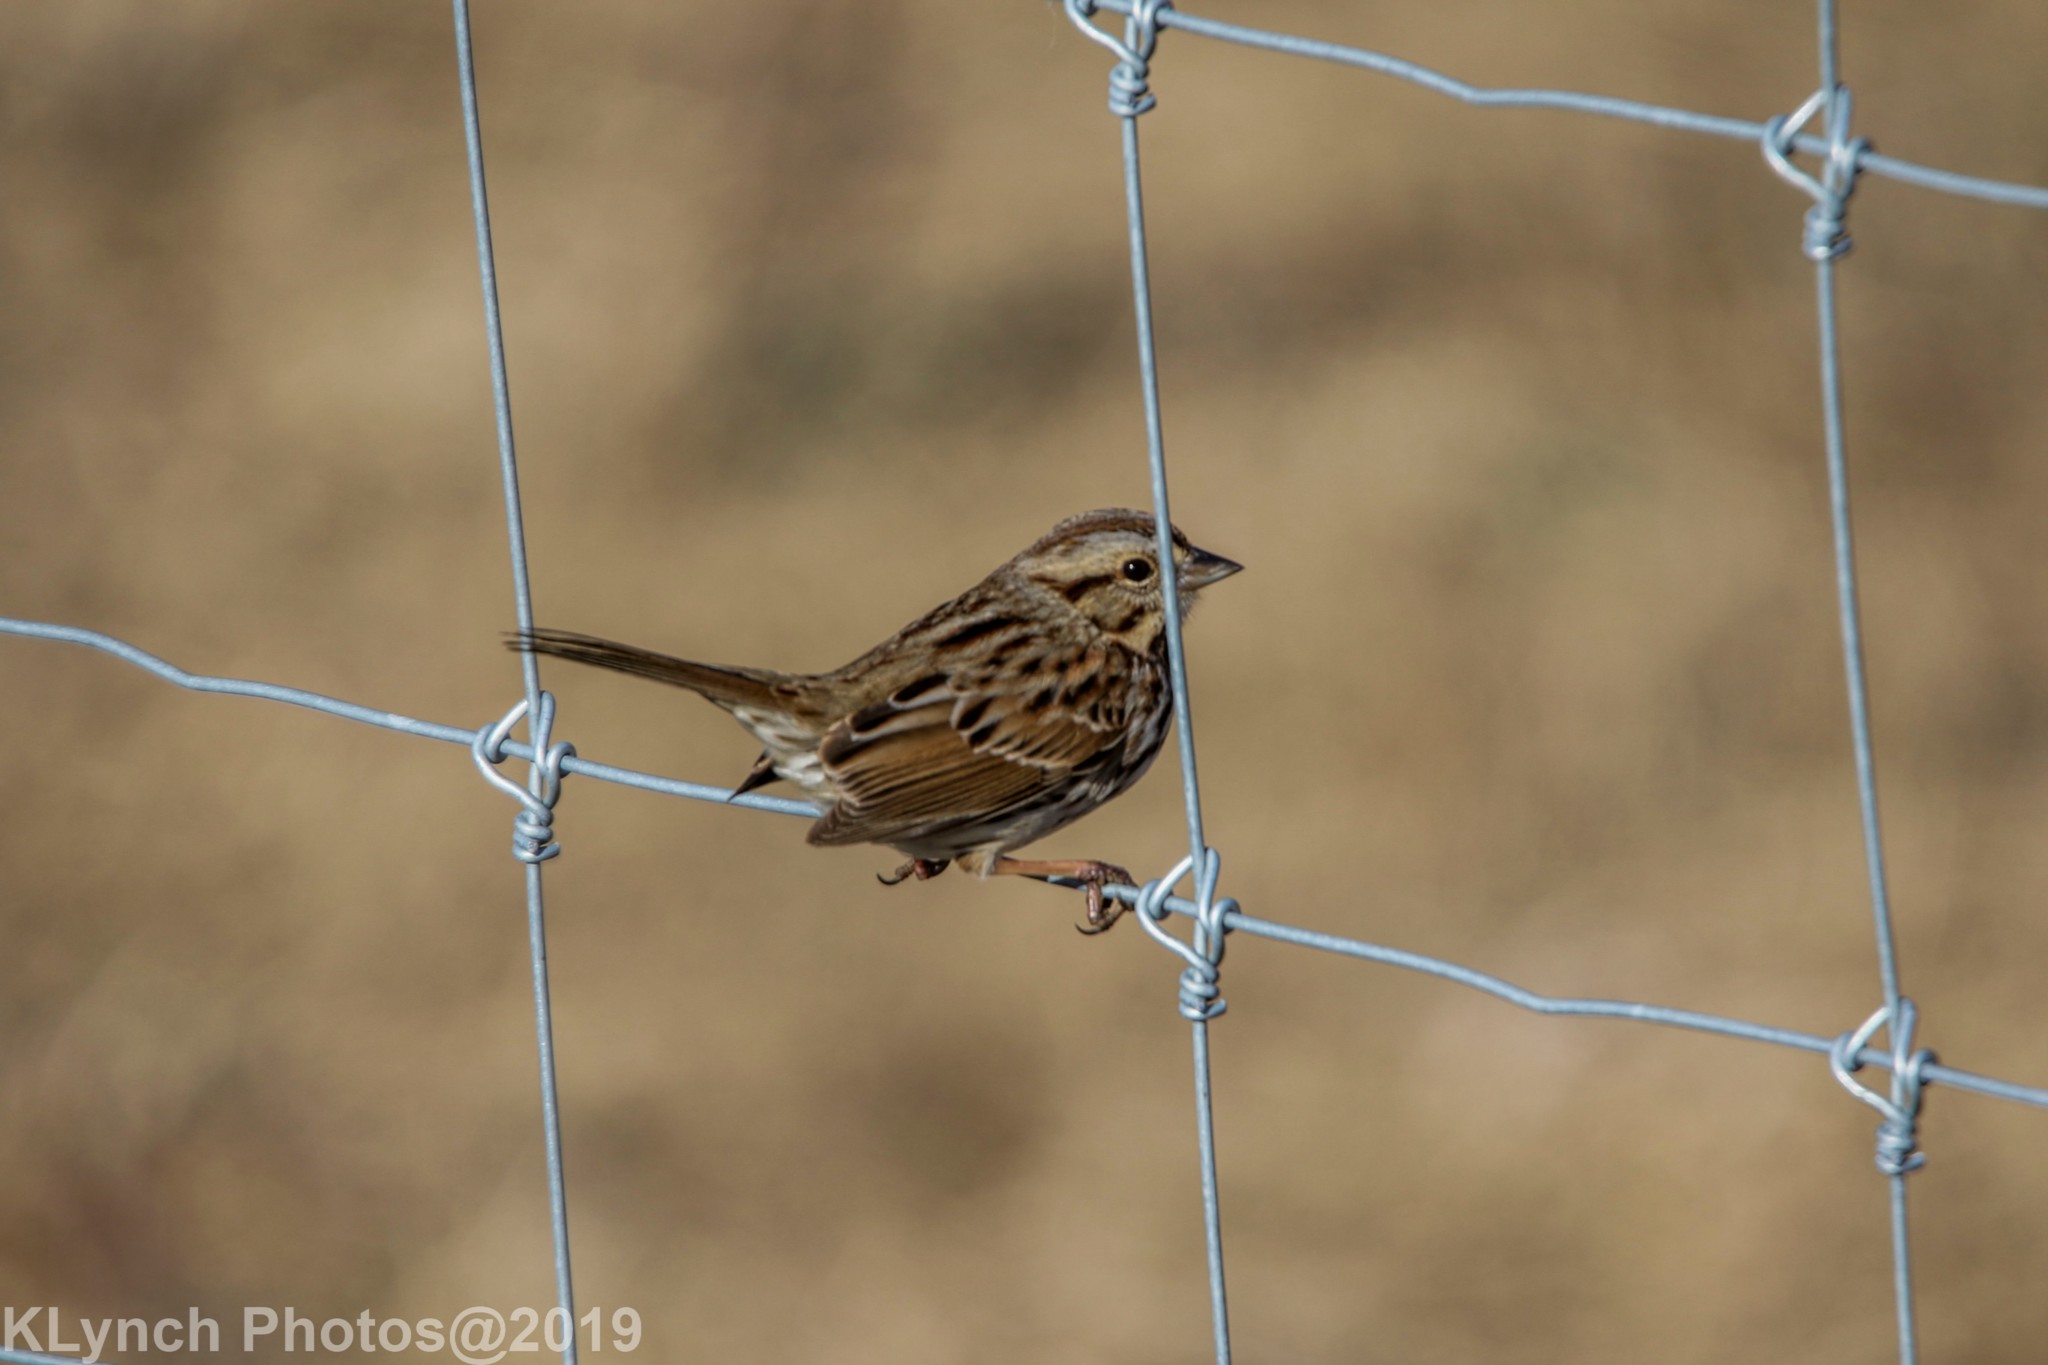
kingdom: Animalia
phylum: Chordata
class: Aves
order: Passeriformes
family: Passerellidae
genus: Melospiza
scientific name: Melospiza melodia
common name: Song sparrow
